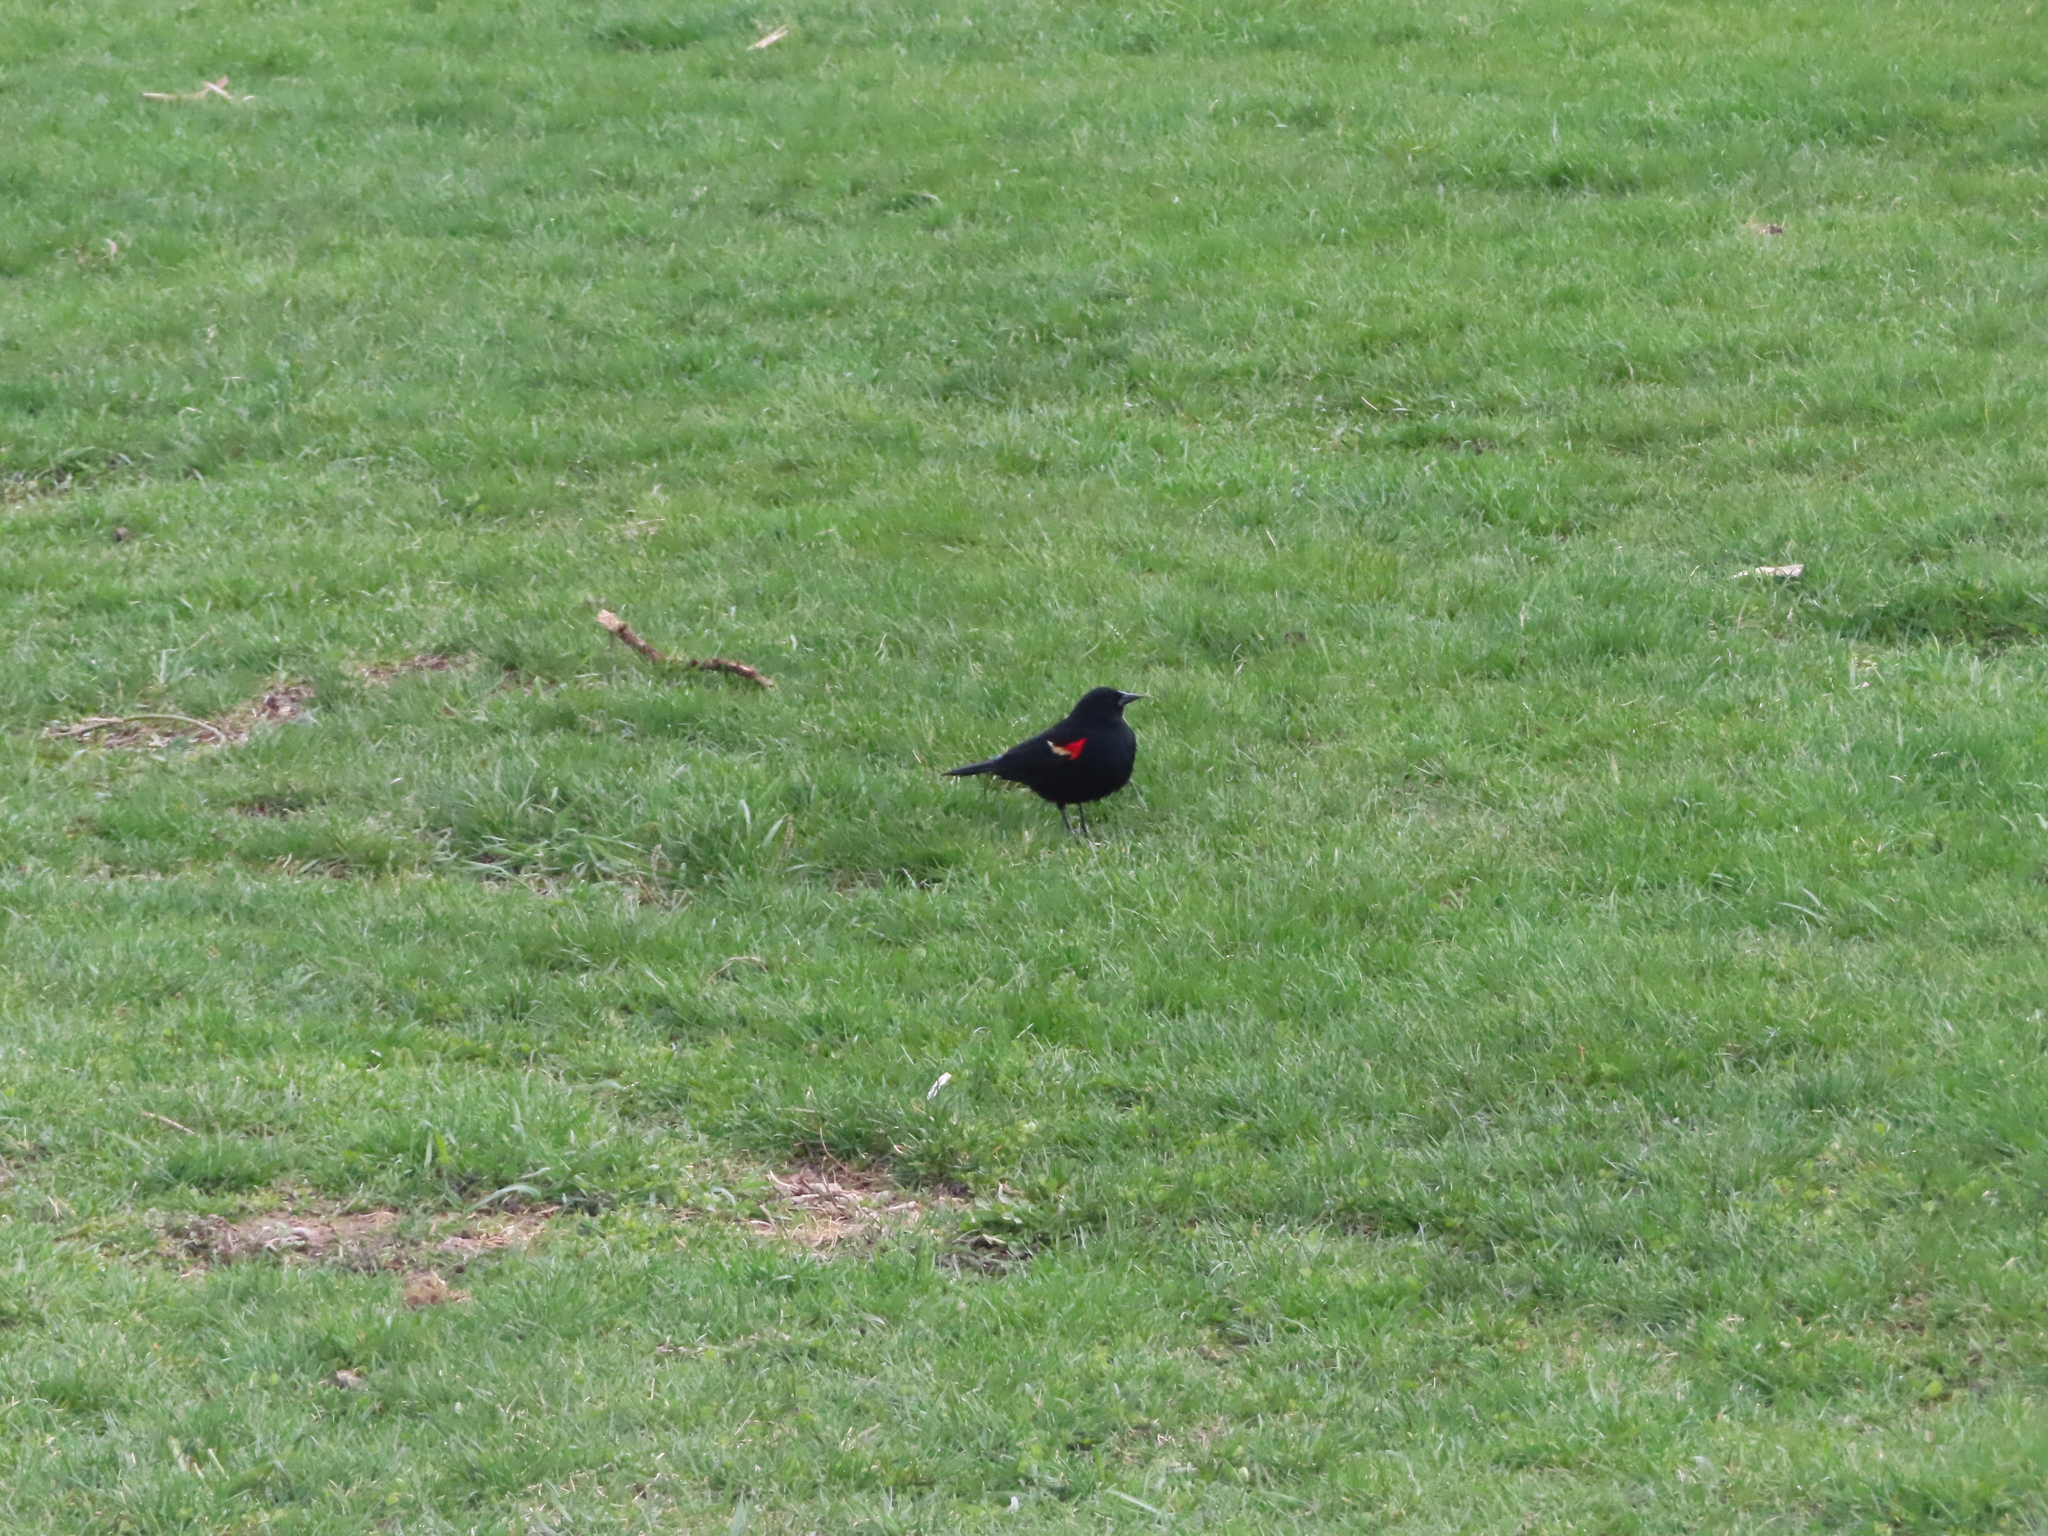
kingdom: Animalia
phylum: Chordata
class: Aves
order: Passeriformes
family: Icteridae
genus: Agelaius
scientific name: Agelaius phoeniceus
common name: Red-winged blackbird
